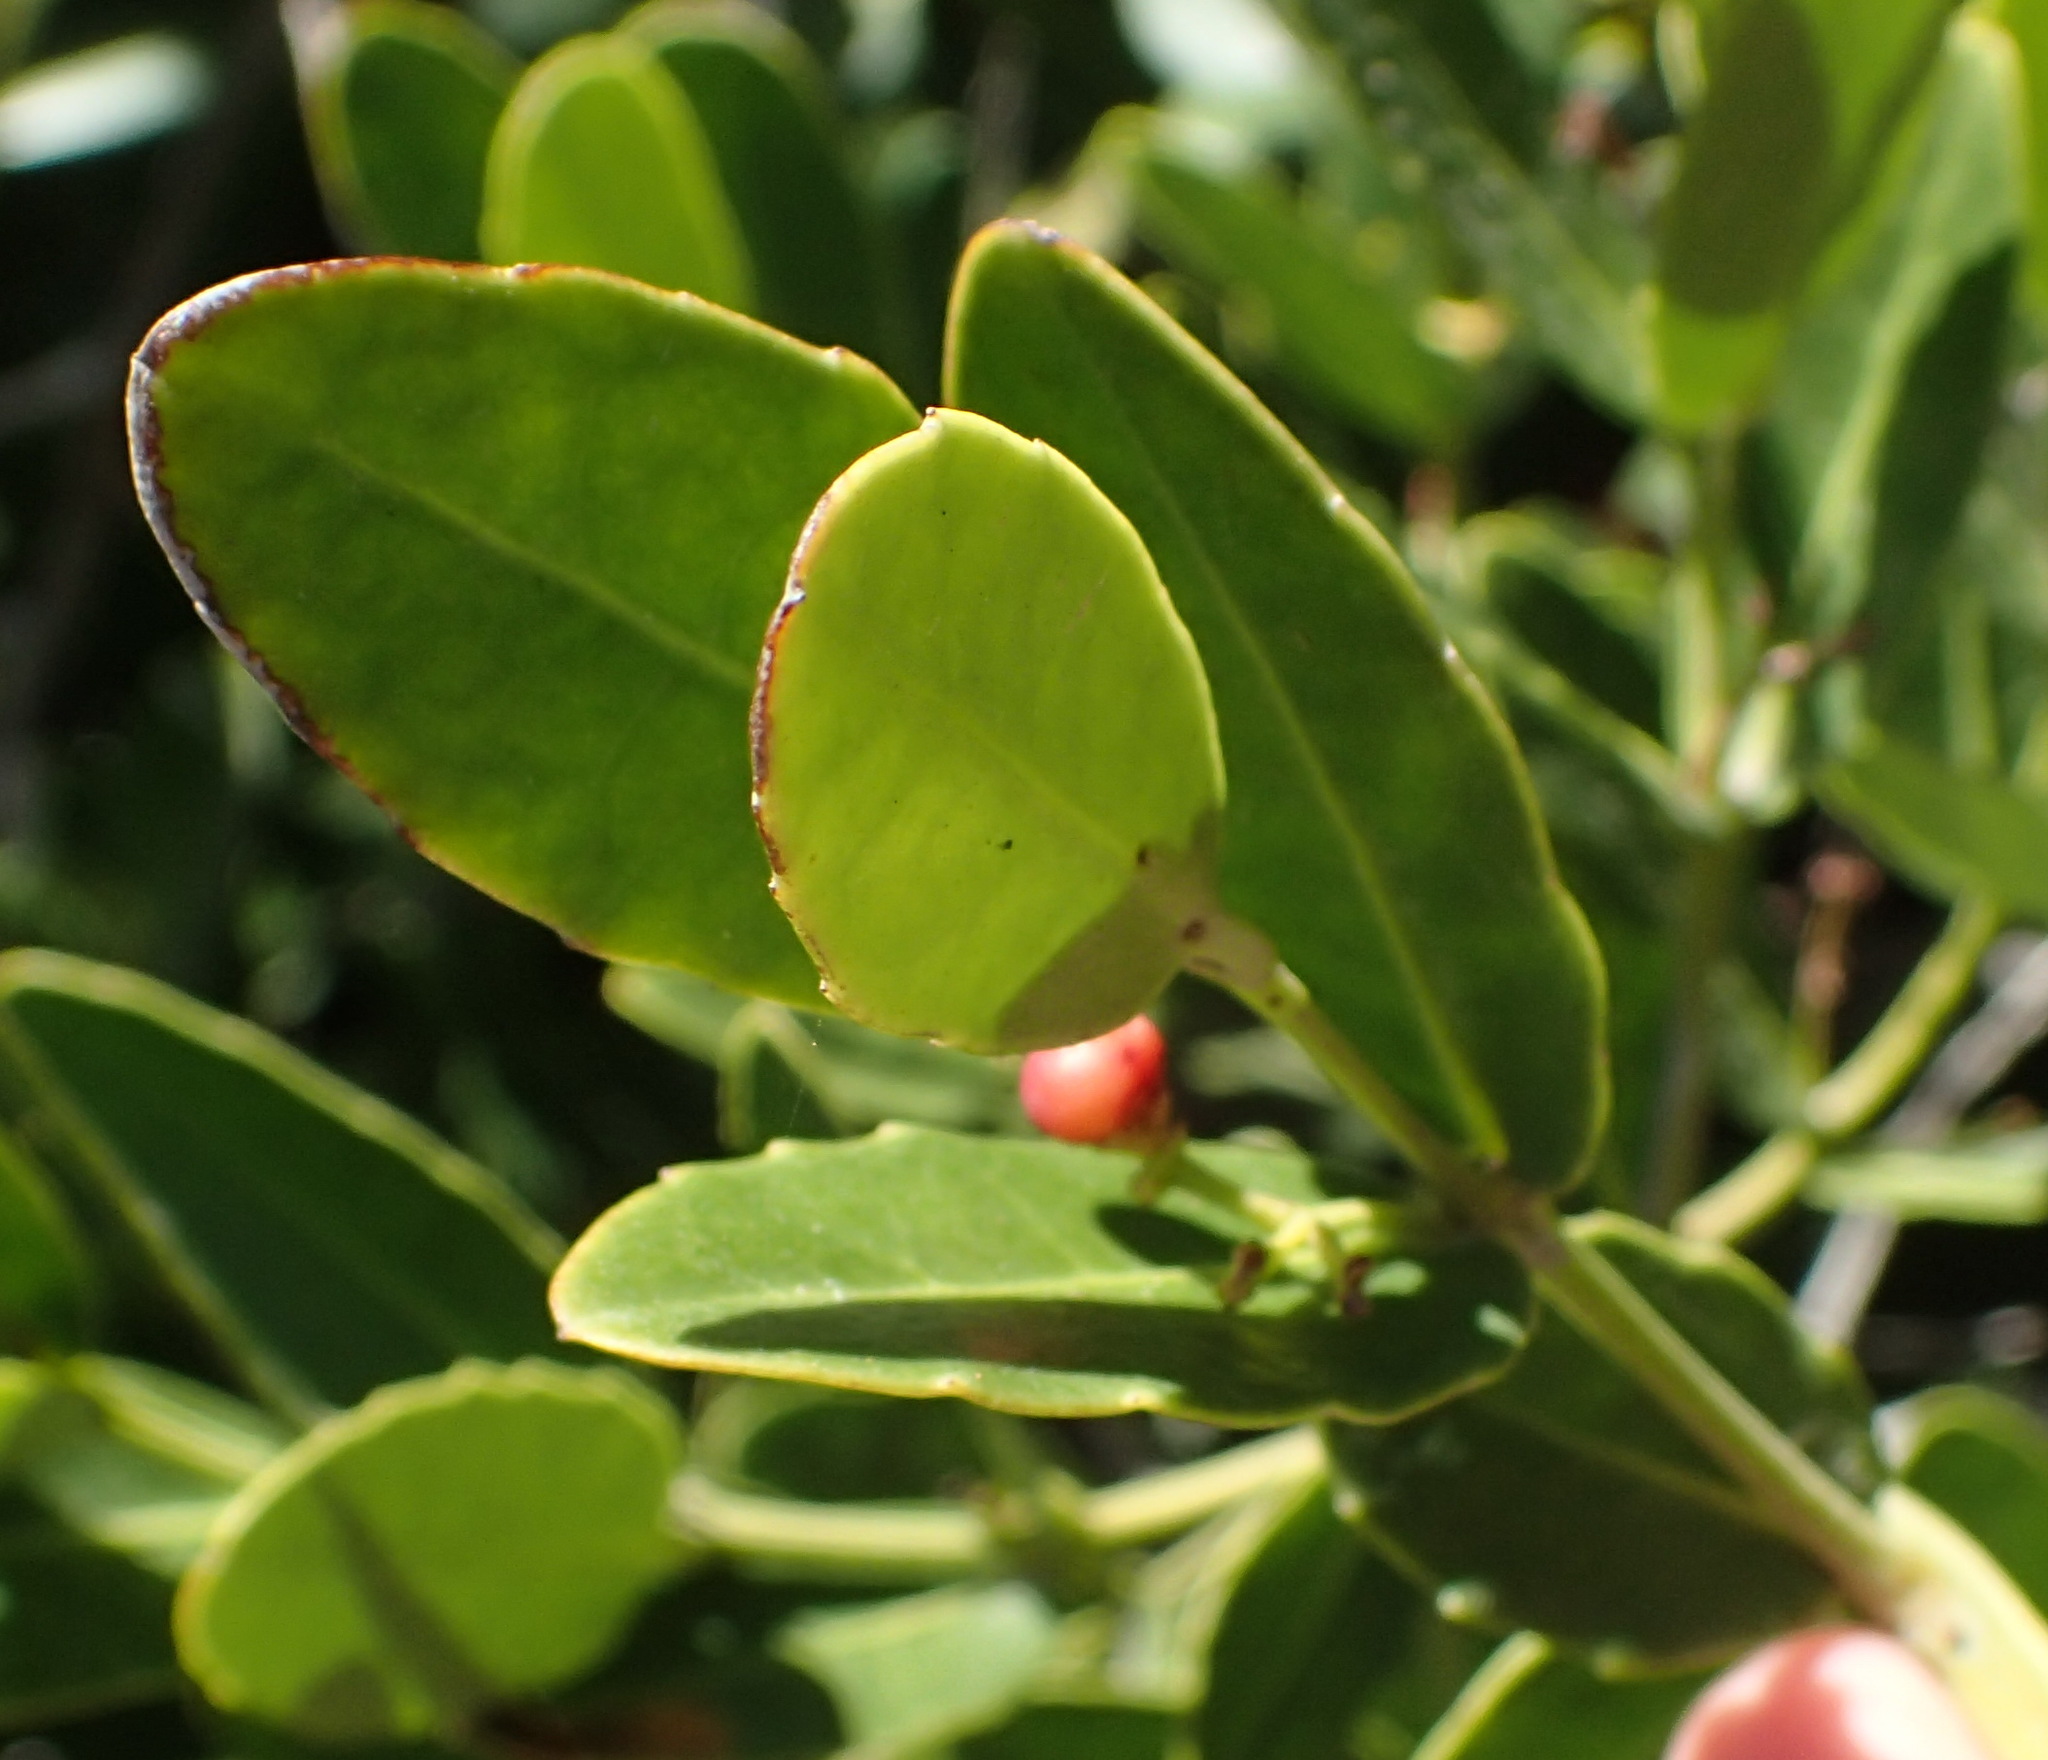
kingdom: Plantae
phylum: Tracheophyta
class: Magnoliopsida
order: Celastrales
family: Celastraceae
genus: Lauridia
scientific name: Lauridia tetragona
